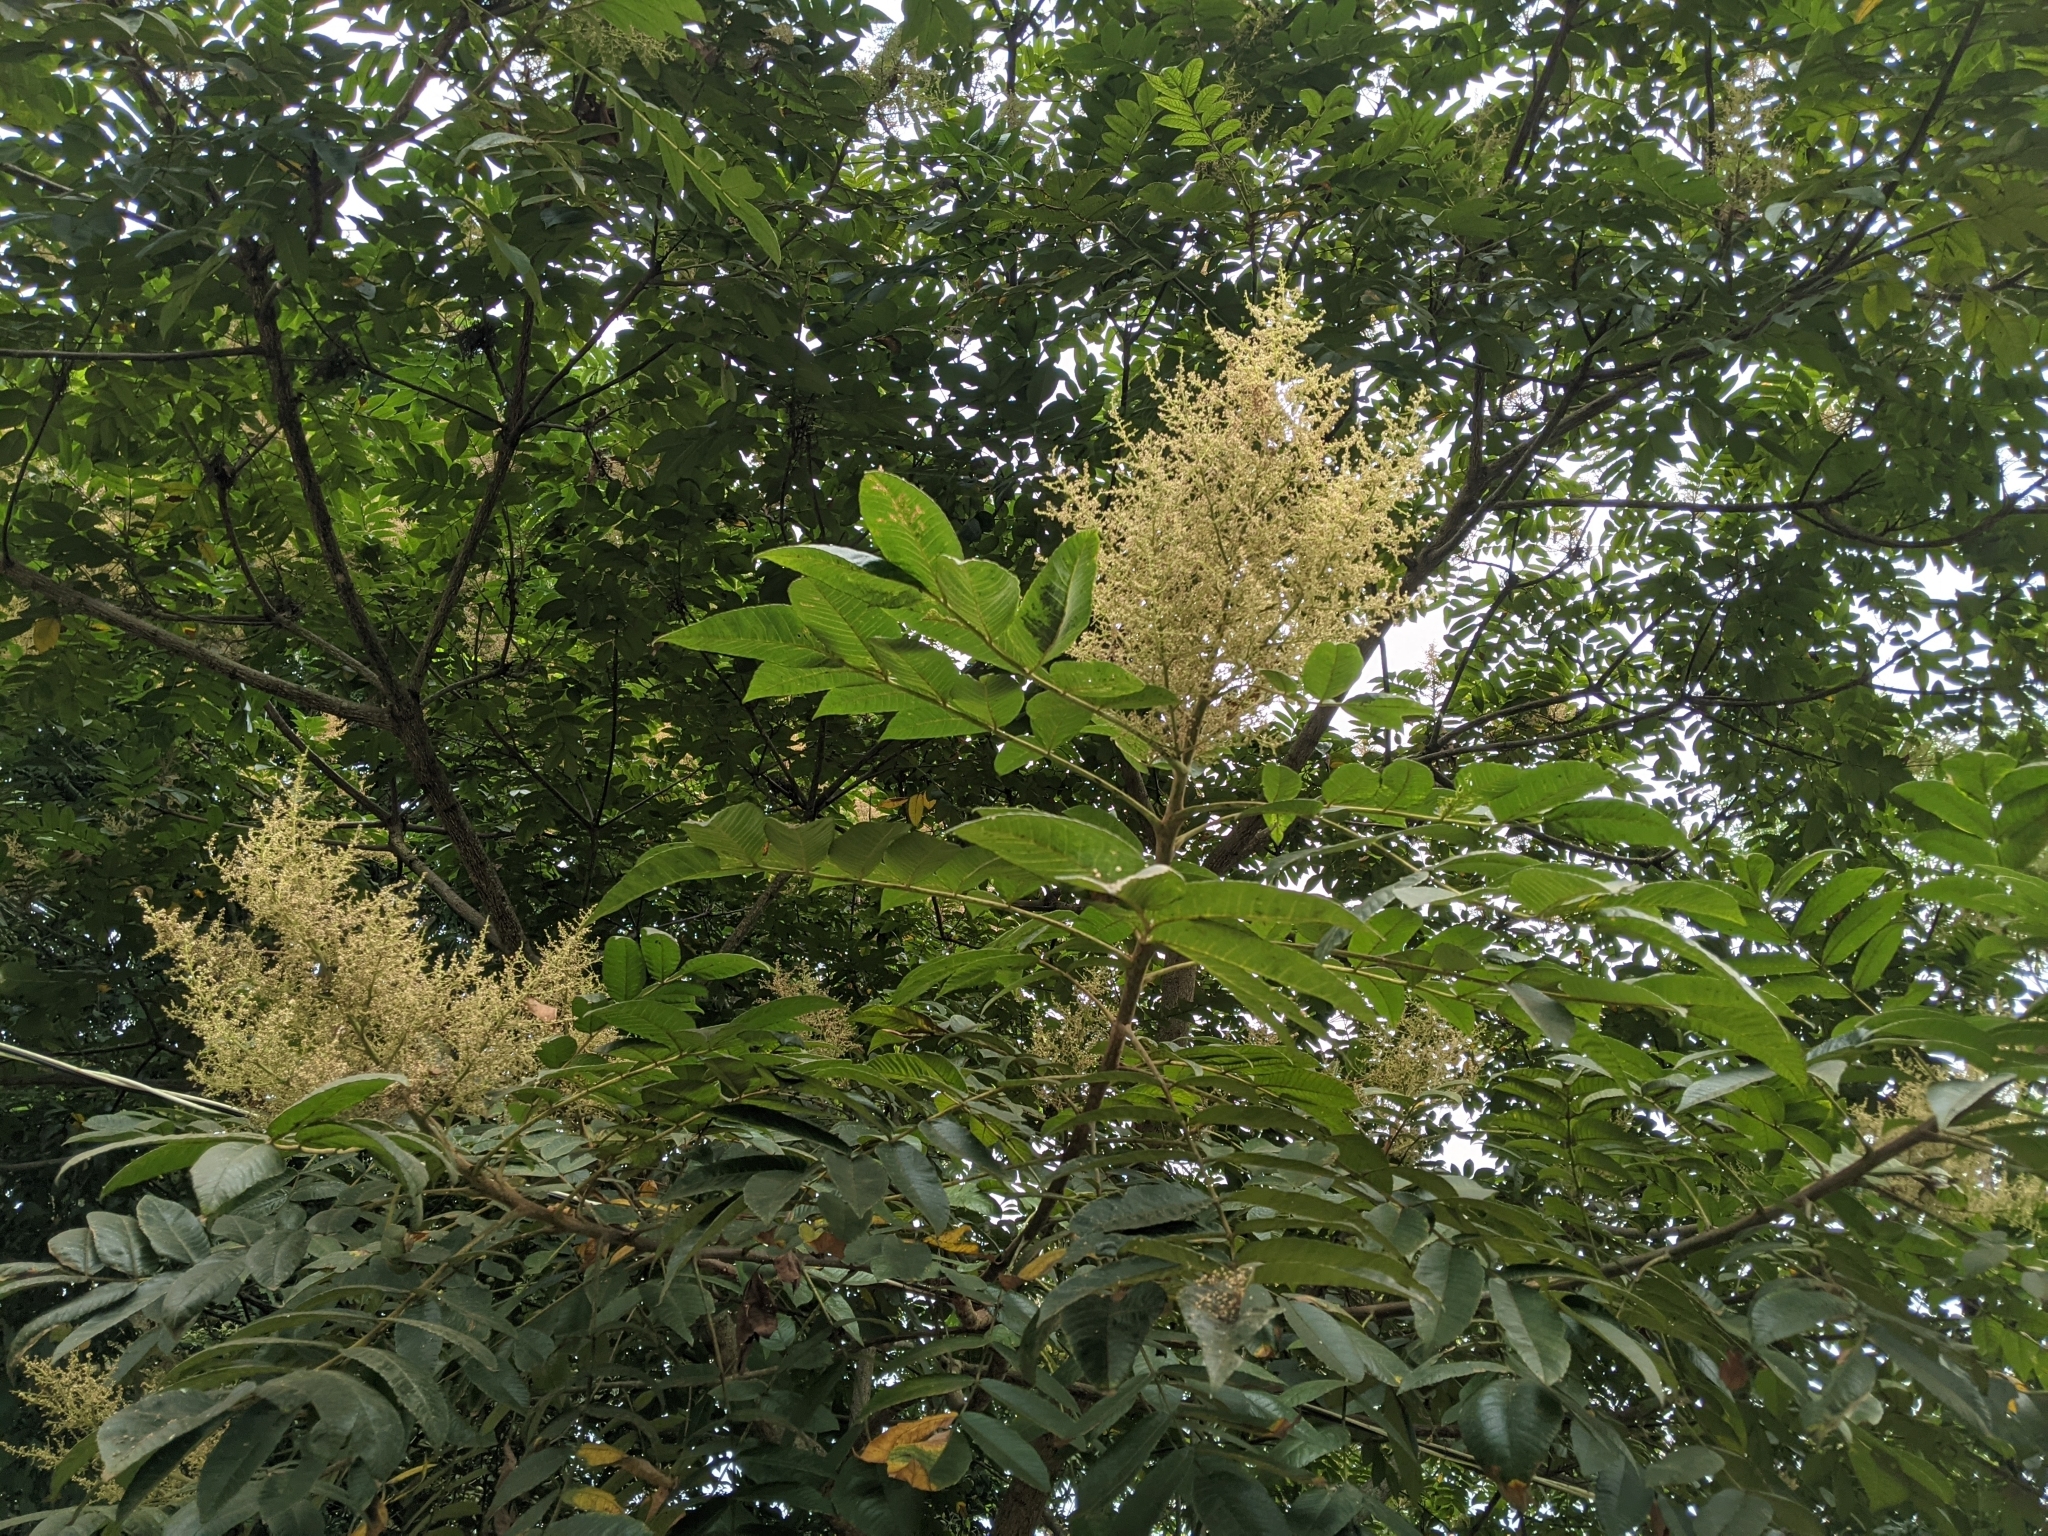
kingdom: Plantae
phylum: Tracheophyta
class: Magnoliopsida
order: Sapindales
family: Anacardiaceae
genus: Rhus
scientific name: Rhus chinensis
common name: Chinese gall
